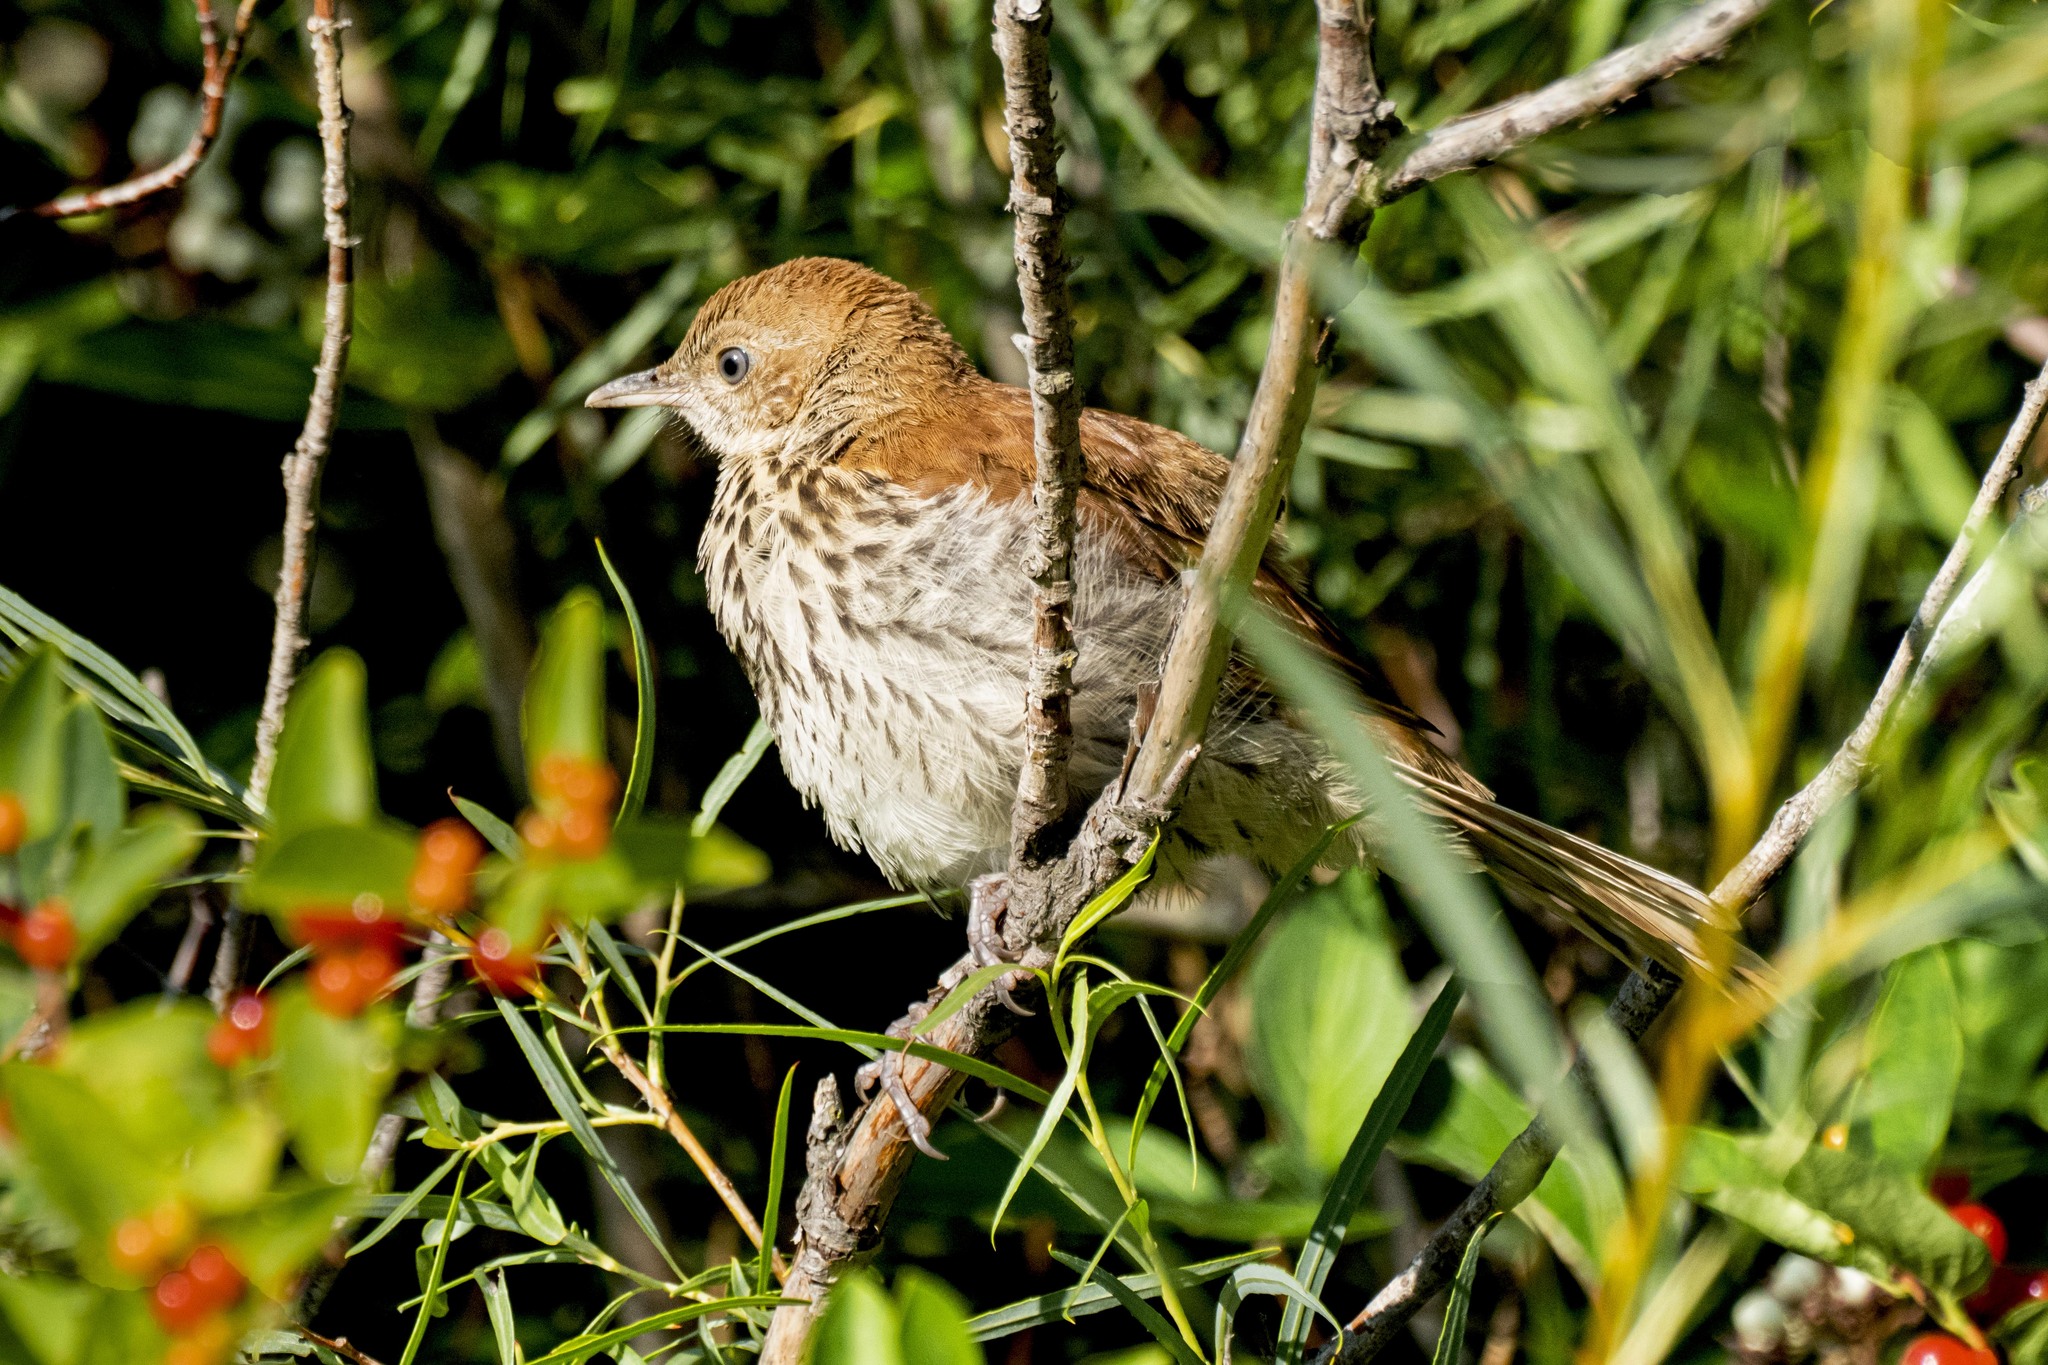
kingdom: Animalia
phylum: Chordata
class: Aves
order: Passeriformes
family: Mimidae
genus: Toxostoma
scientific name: Toxostoma rufum
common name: Brown thrasher
